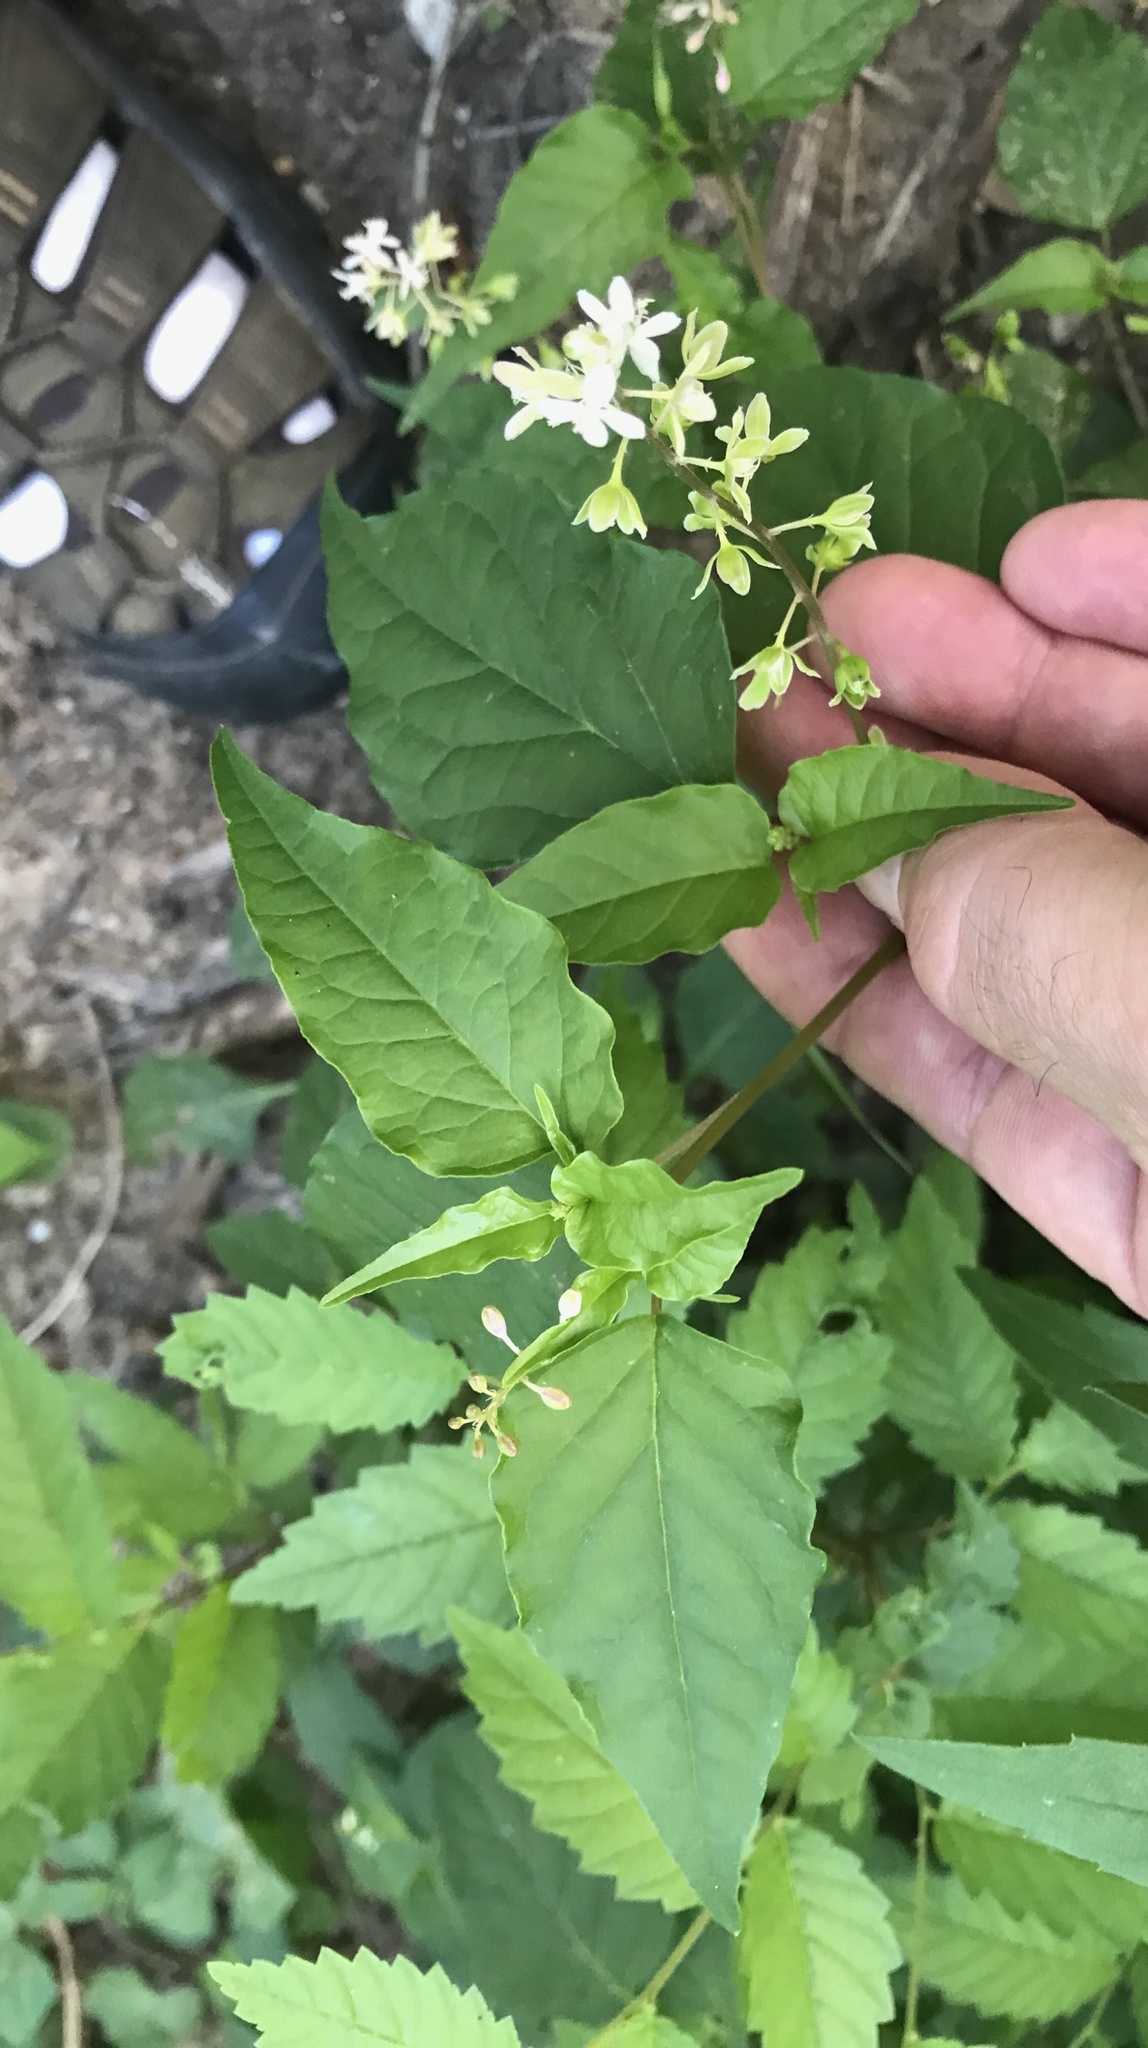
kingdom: Plantae
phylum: Tracheophyta
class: Magnoliopsida
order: Caryophyllales
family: Phytolaccaceae
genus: Rivina
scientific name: Rivina humilis
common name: Rougeplant
